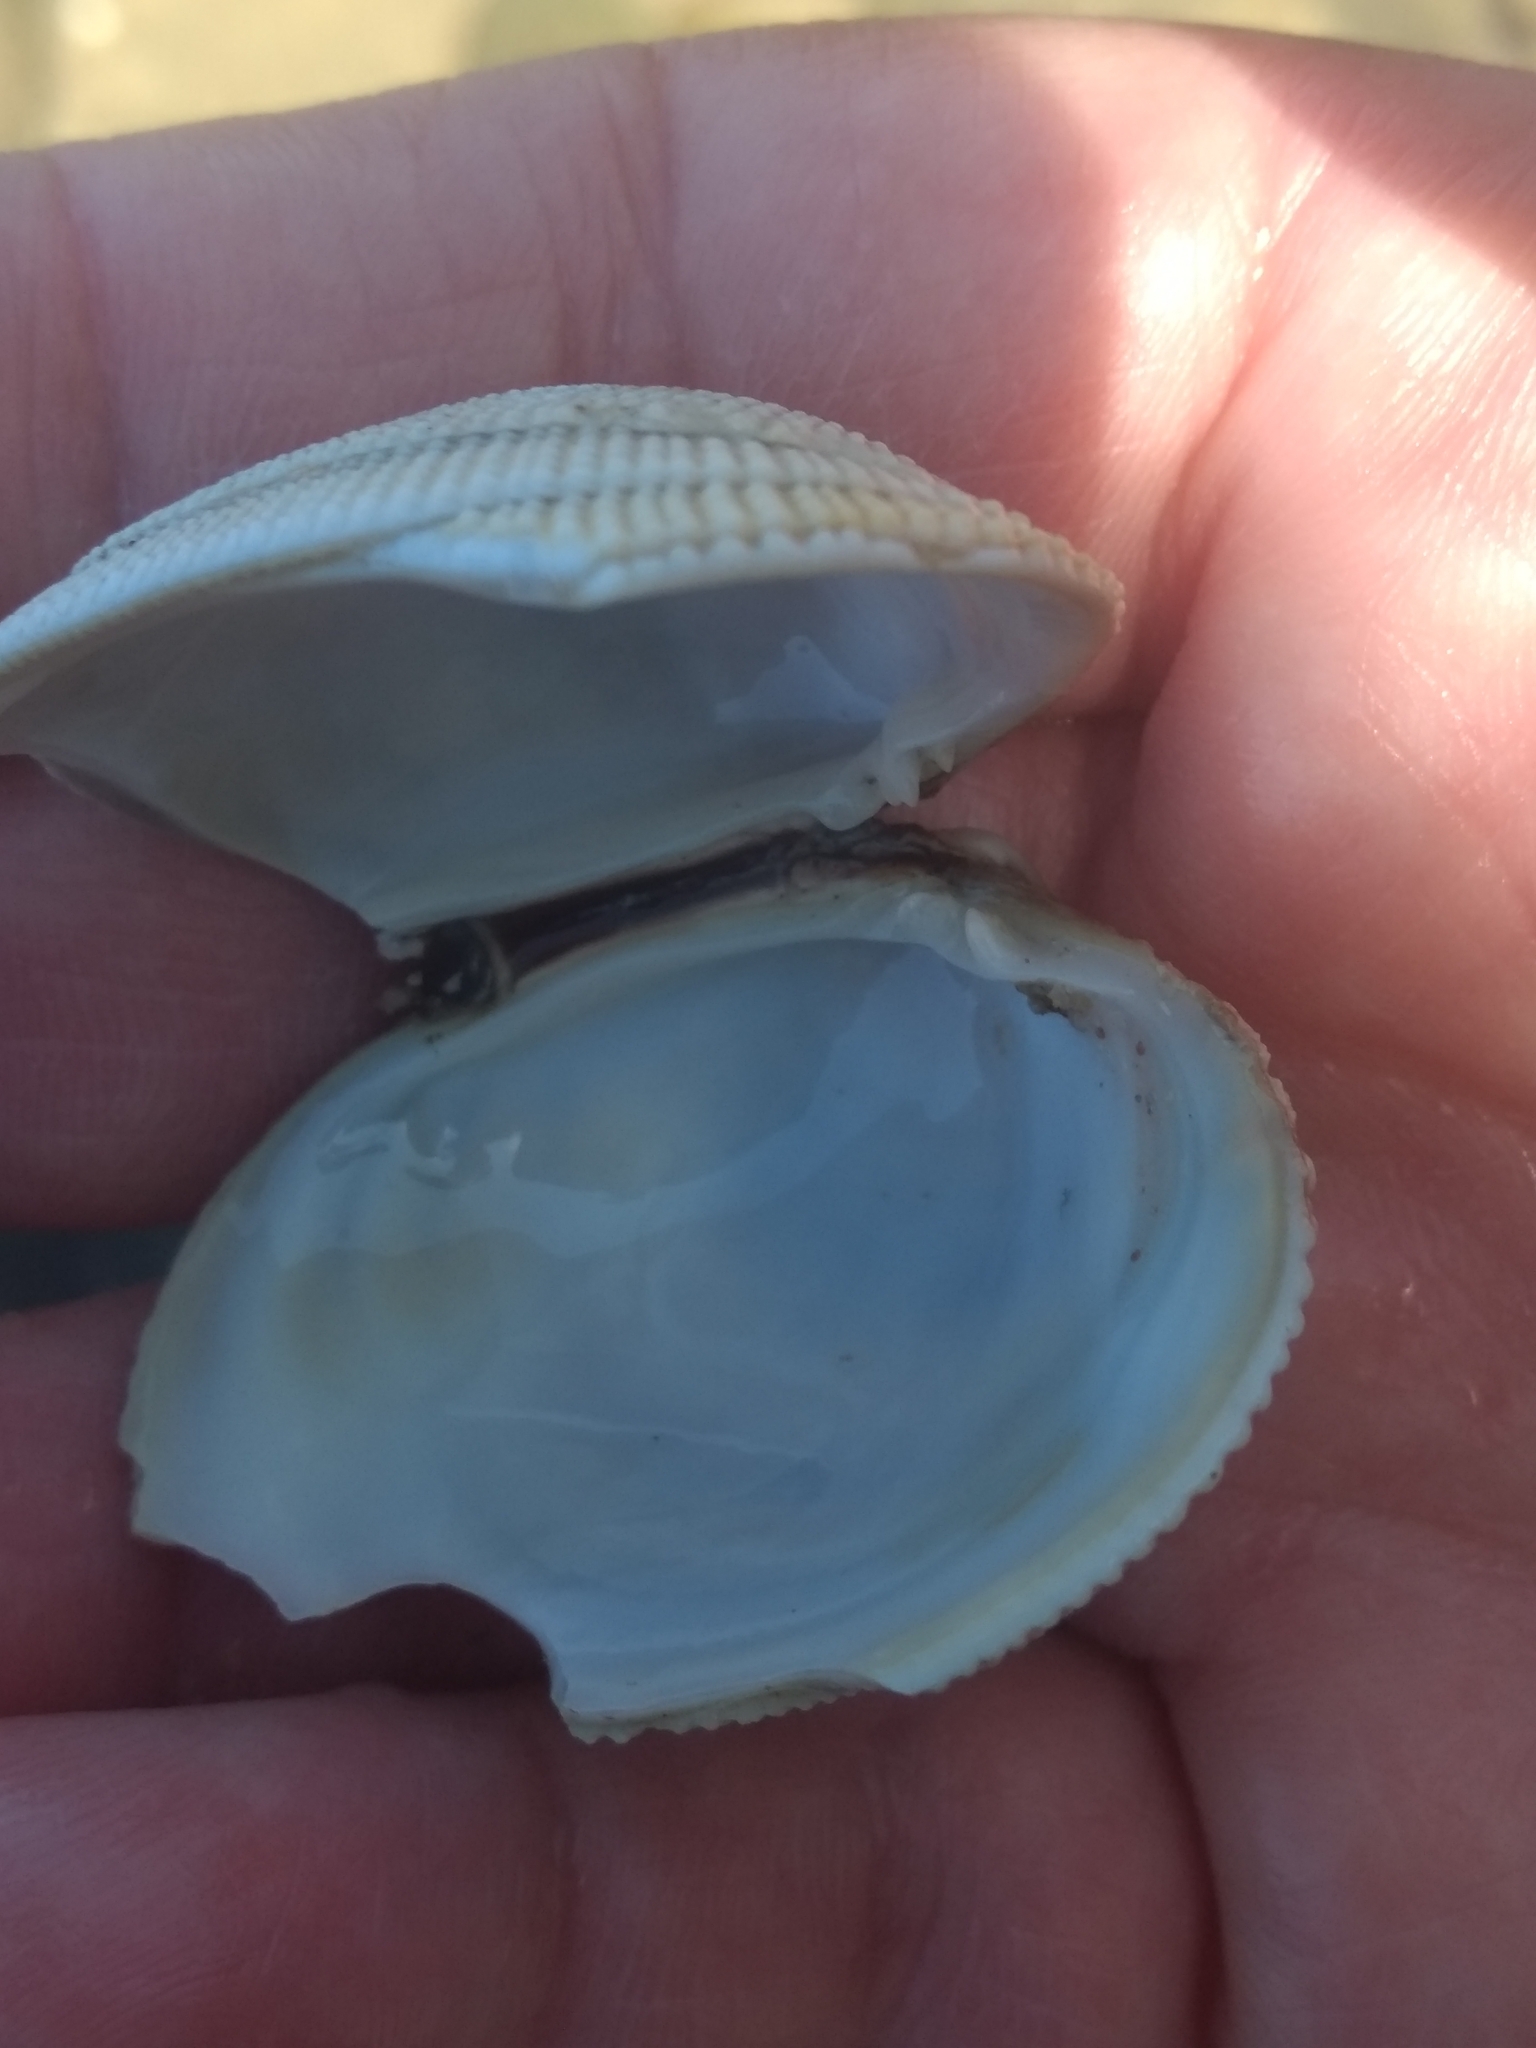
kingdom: Animalia
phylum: Mollusca
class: Bivalvia
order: Venerida
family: Veneridae
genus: Leukoma
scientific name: Leukoma staminea
